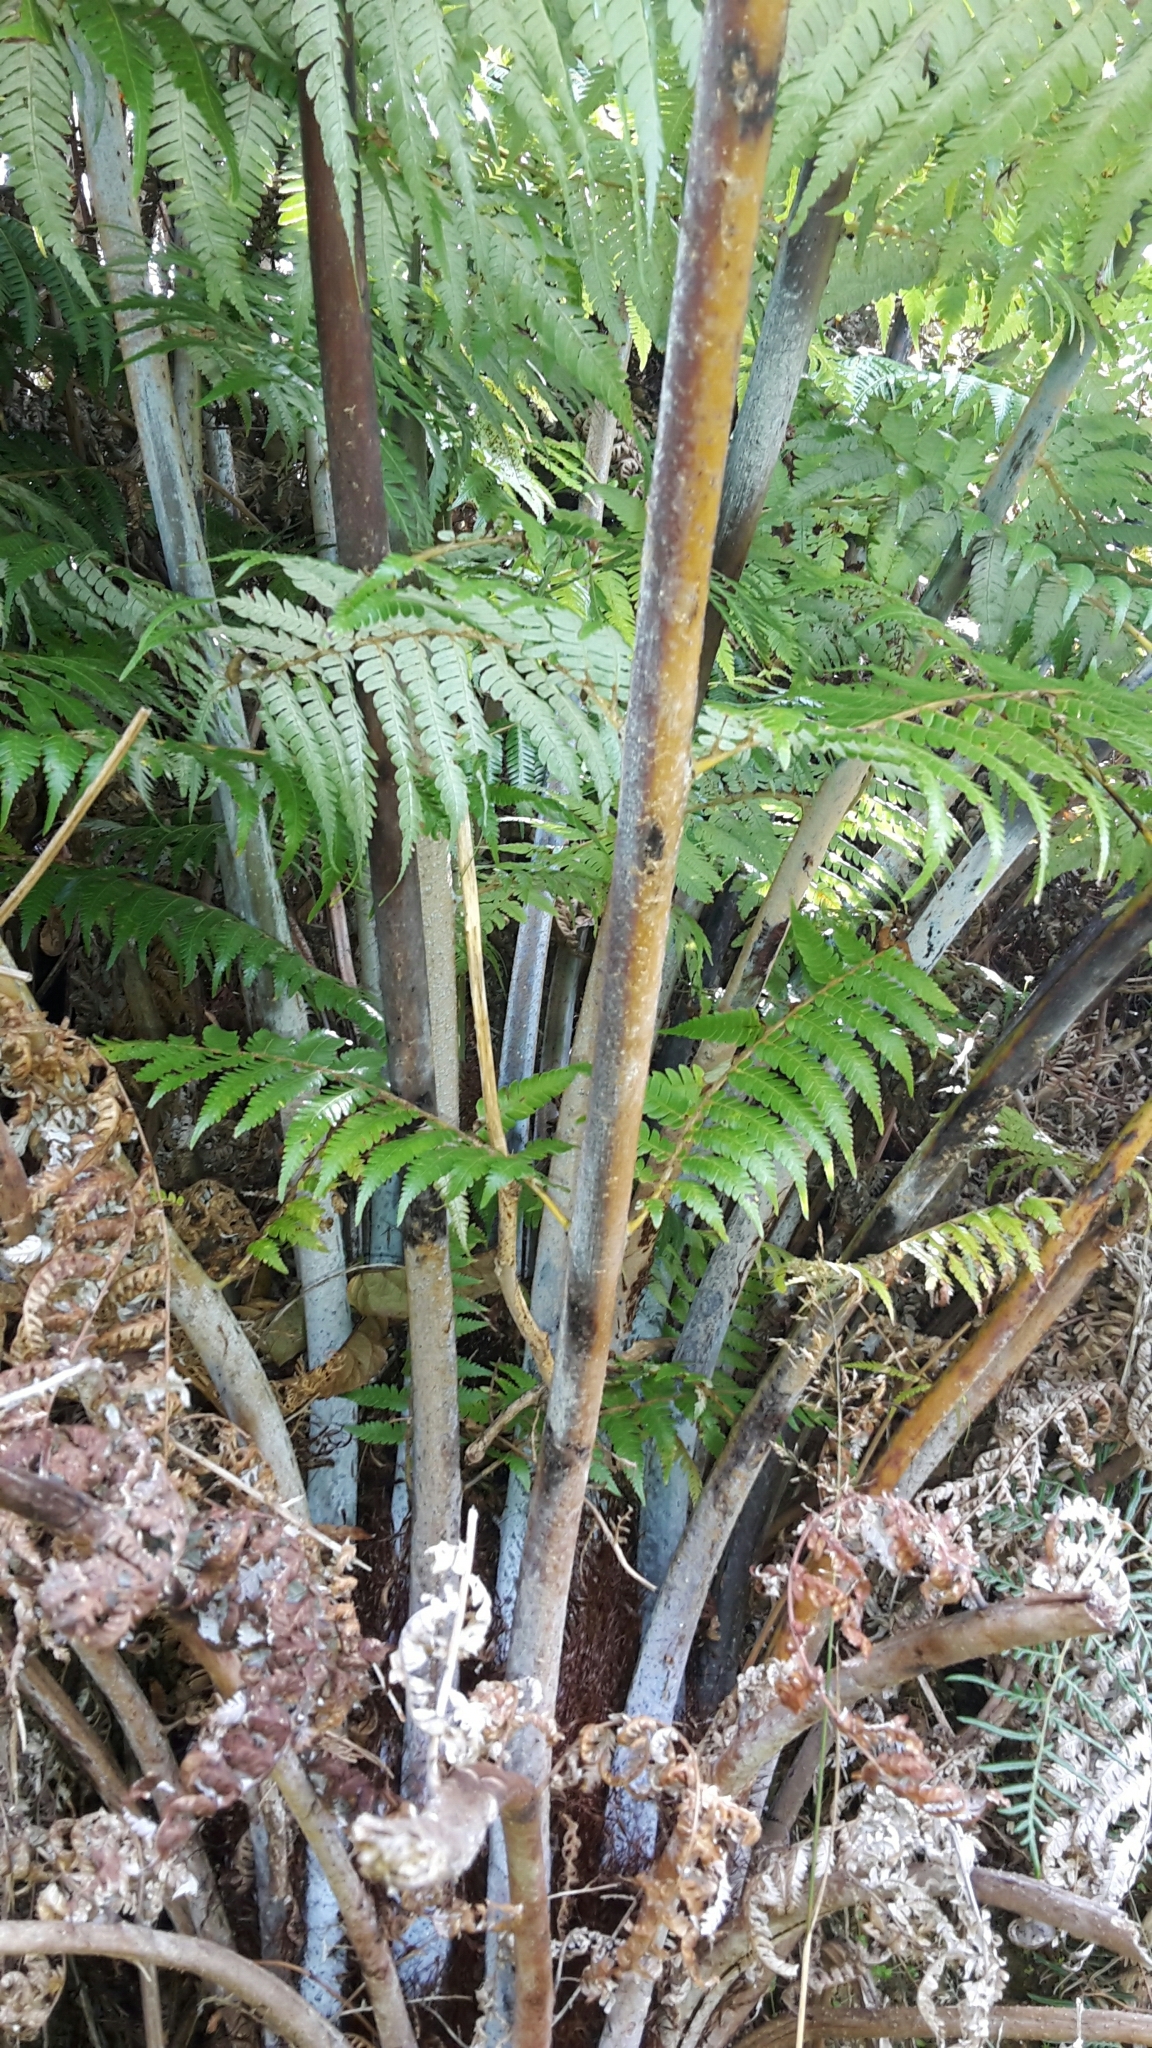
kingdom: Plantae
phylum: Tracheophyta
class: Polypodiopsida
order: Cyatheales
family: Cyatheaceae
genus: Alsophila
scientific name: Alsophila dealbata
